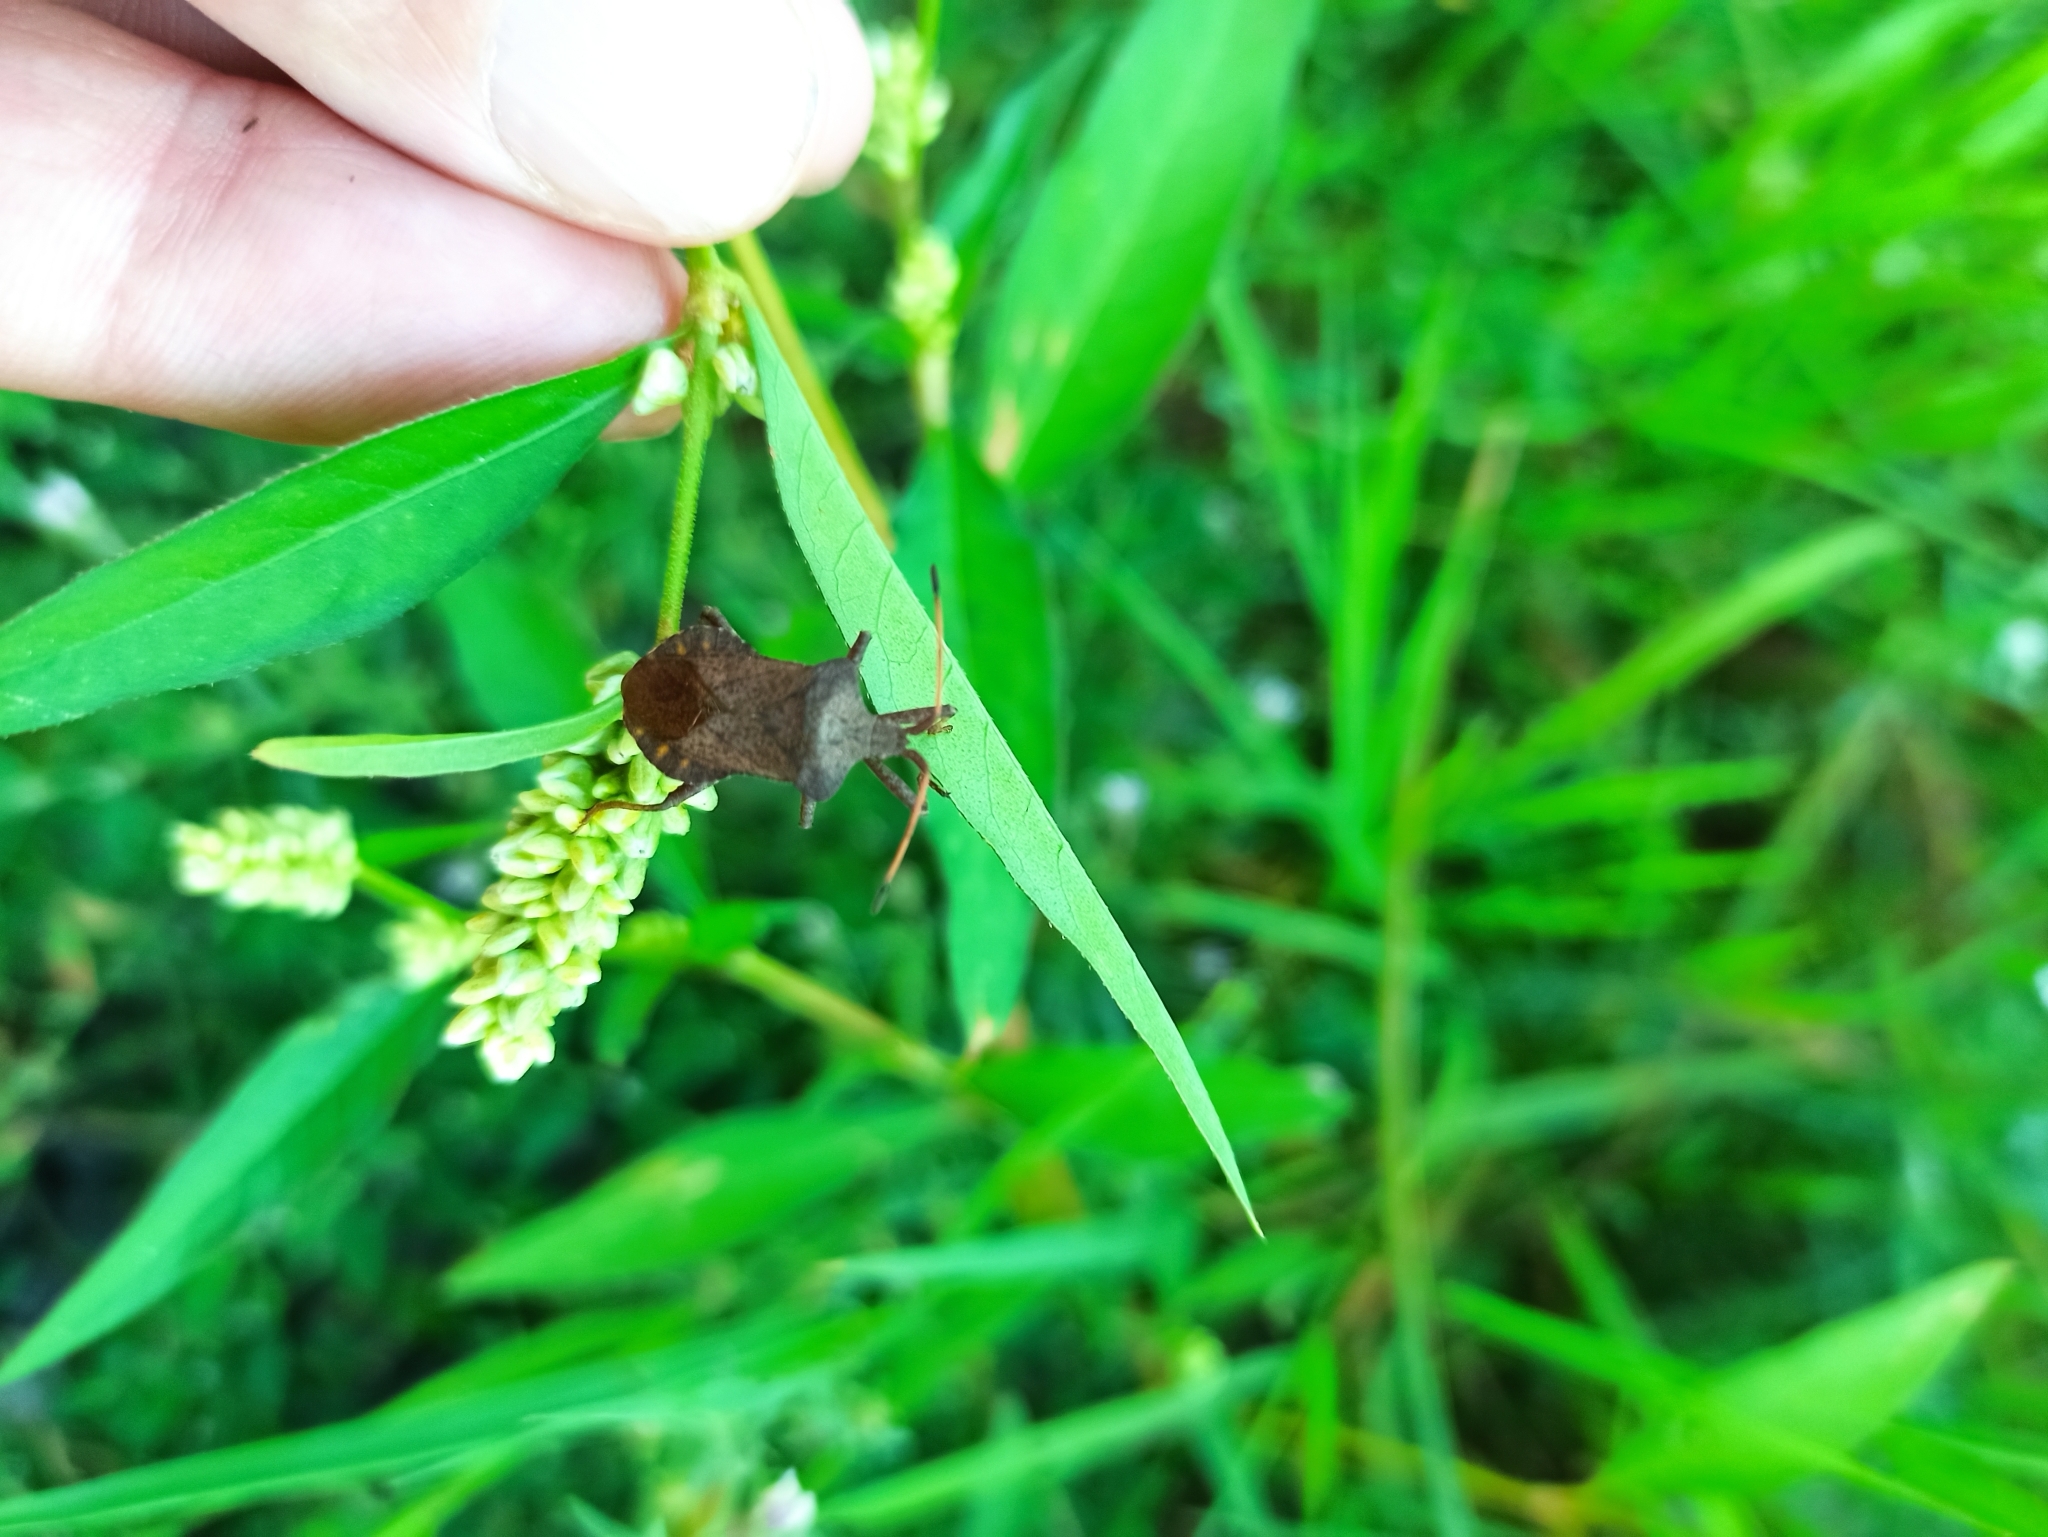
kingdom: Animalia
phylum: Arthropoda
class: Insecta
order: Hemiptera
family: Coreidae
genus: Coreus
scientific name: Coreus marginatus
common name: Dock bug
